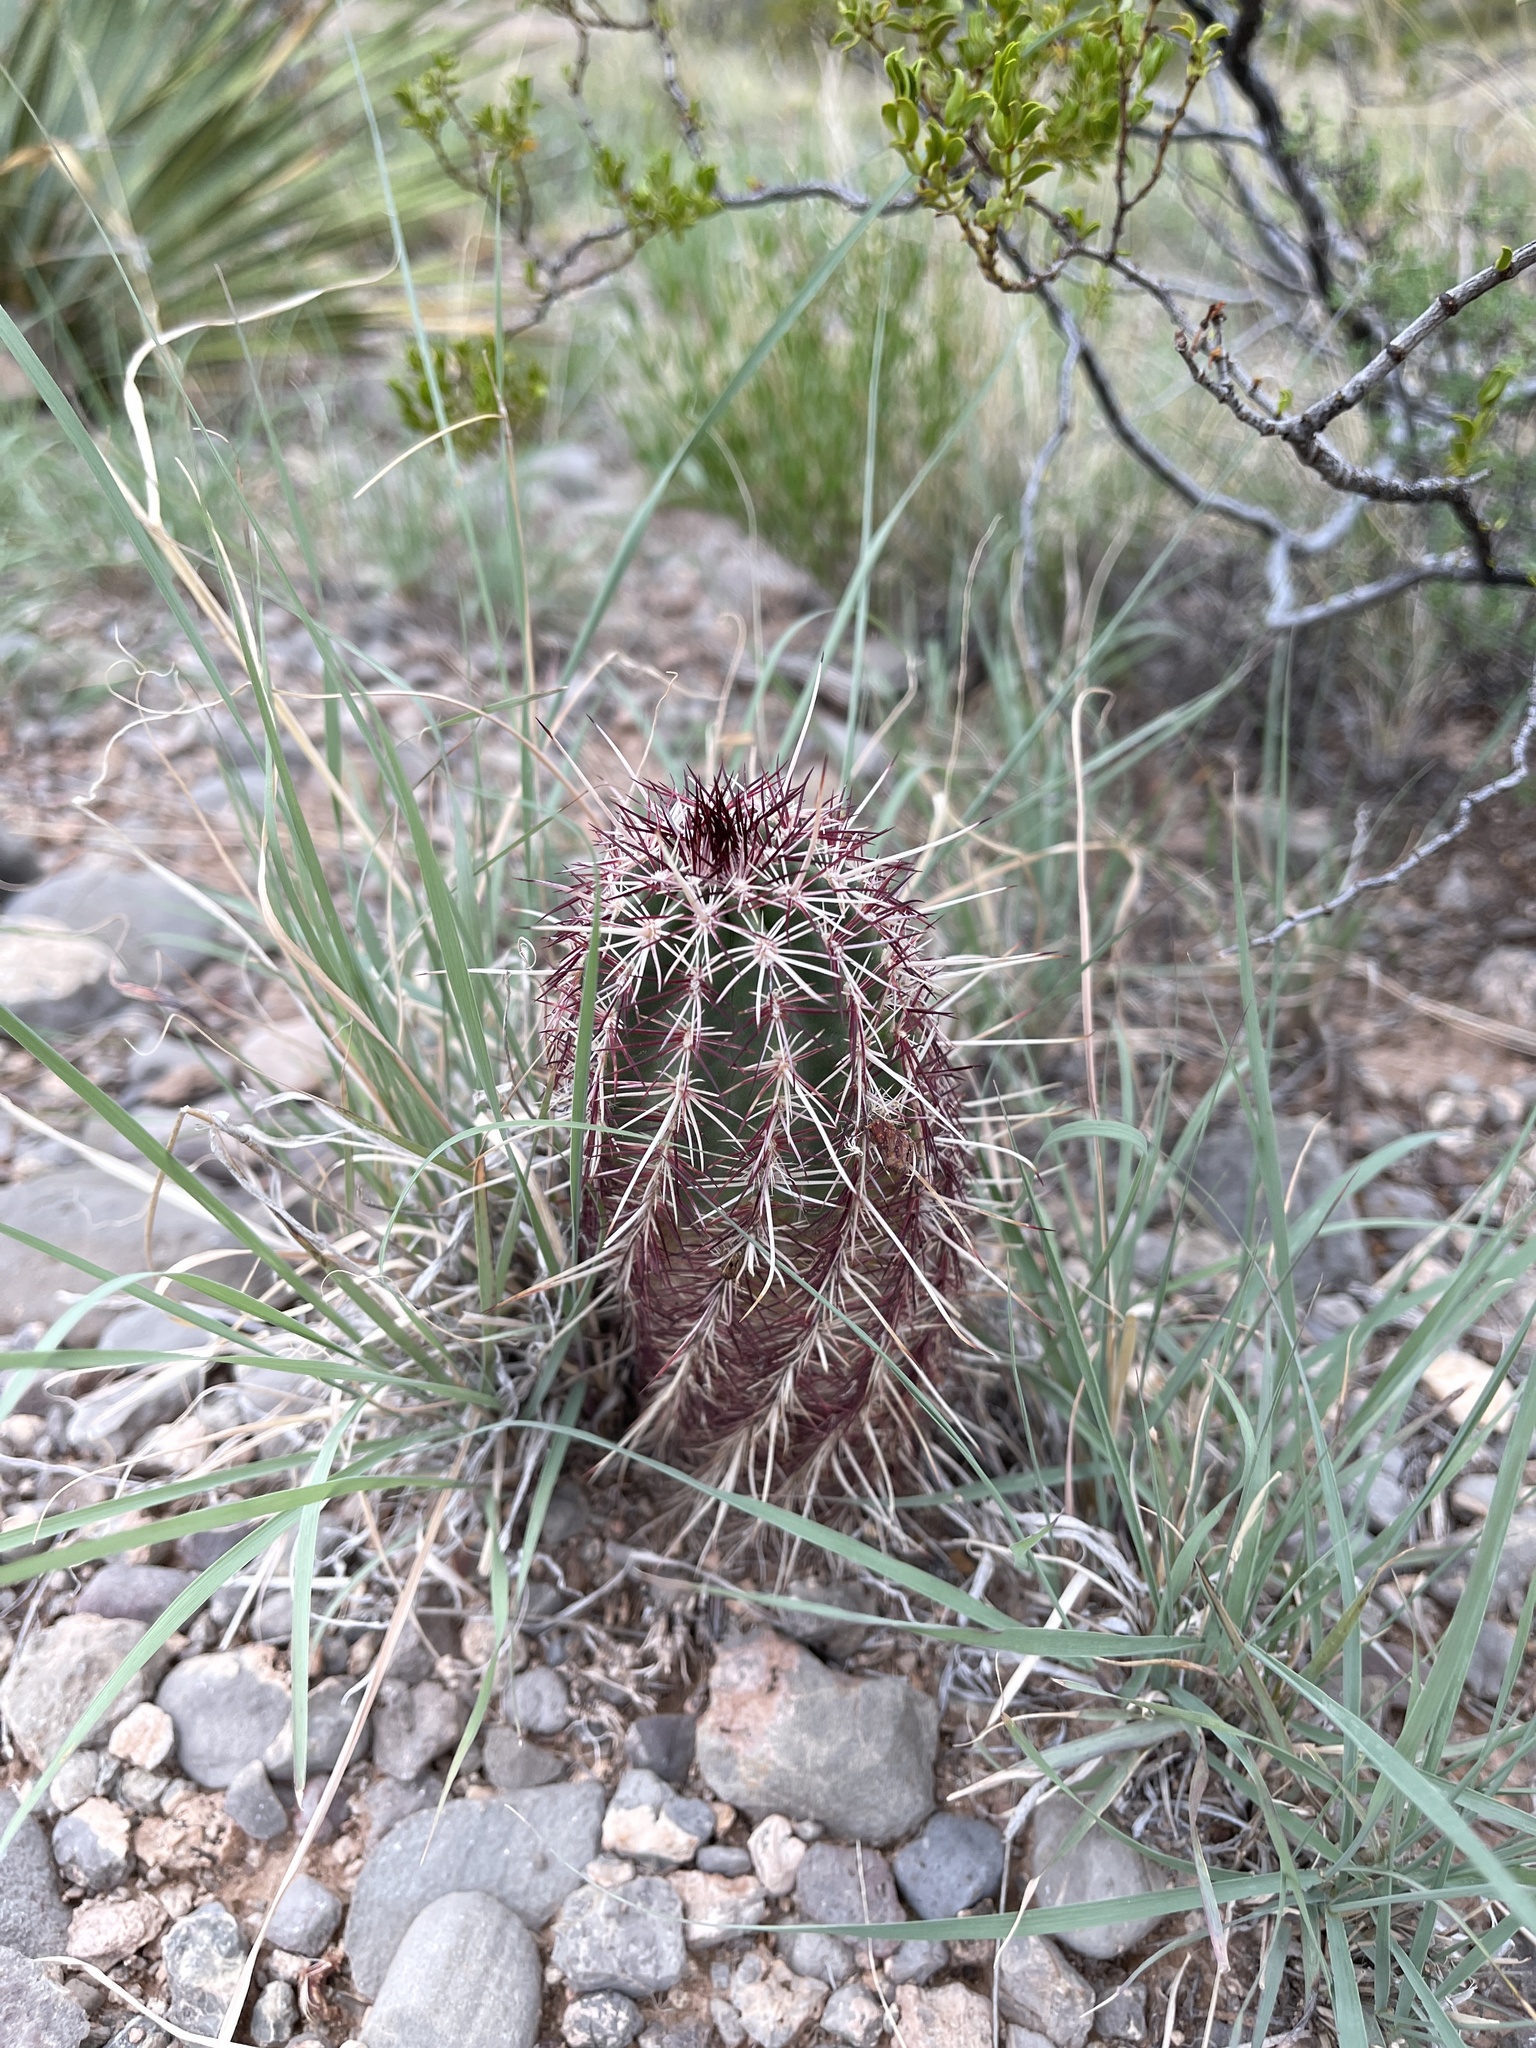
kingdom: Plantae
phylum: Tracheophyta
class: Magnoliopsida
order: Caryophyllales
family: Cactaceae
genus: Echinocereus
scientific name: Echinocereus viridiflorus
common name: Nylon hedgehog cactus
